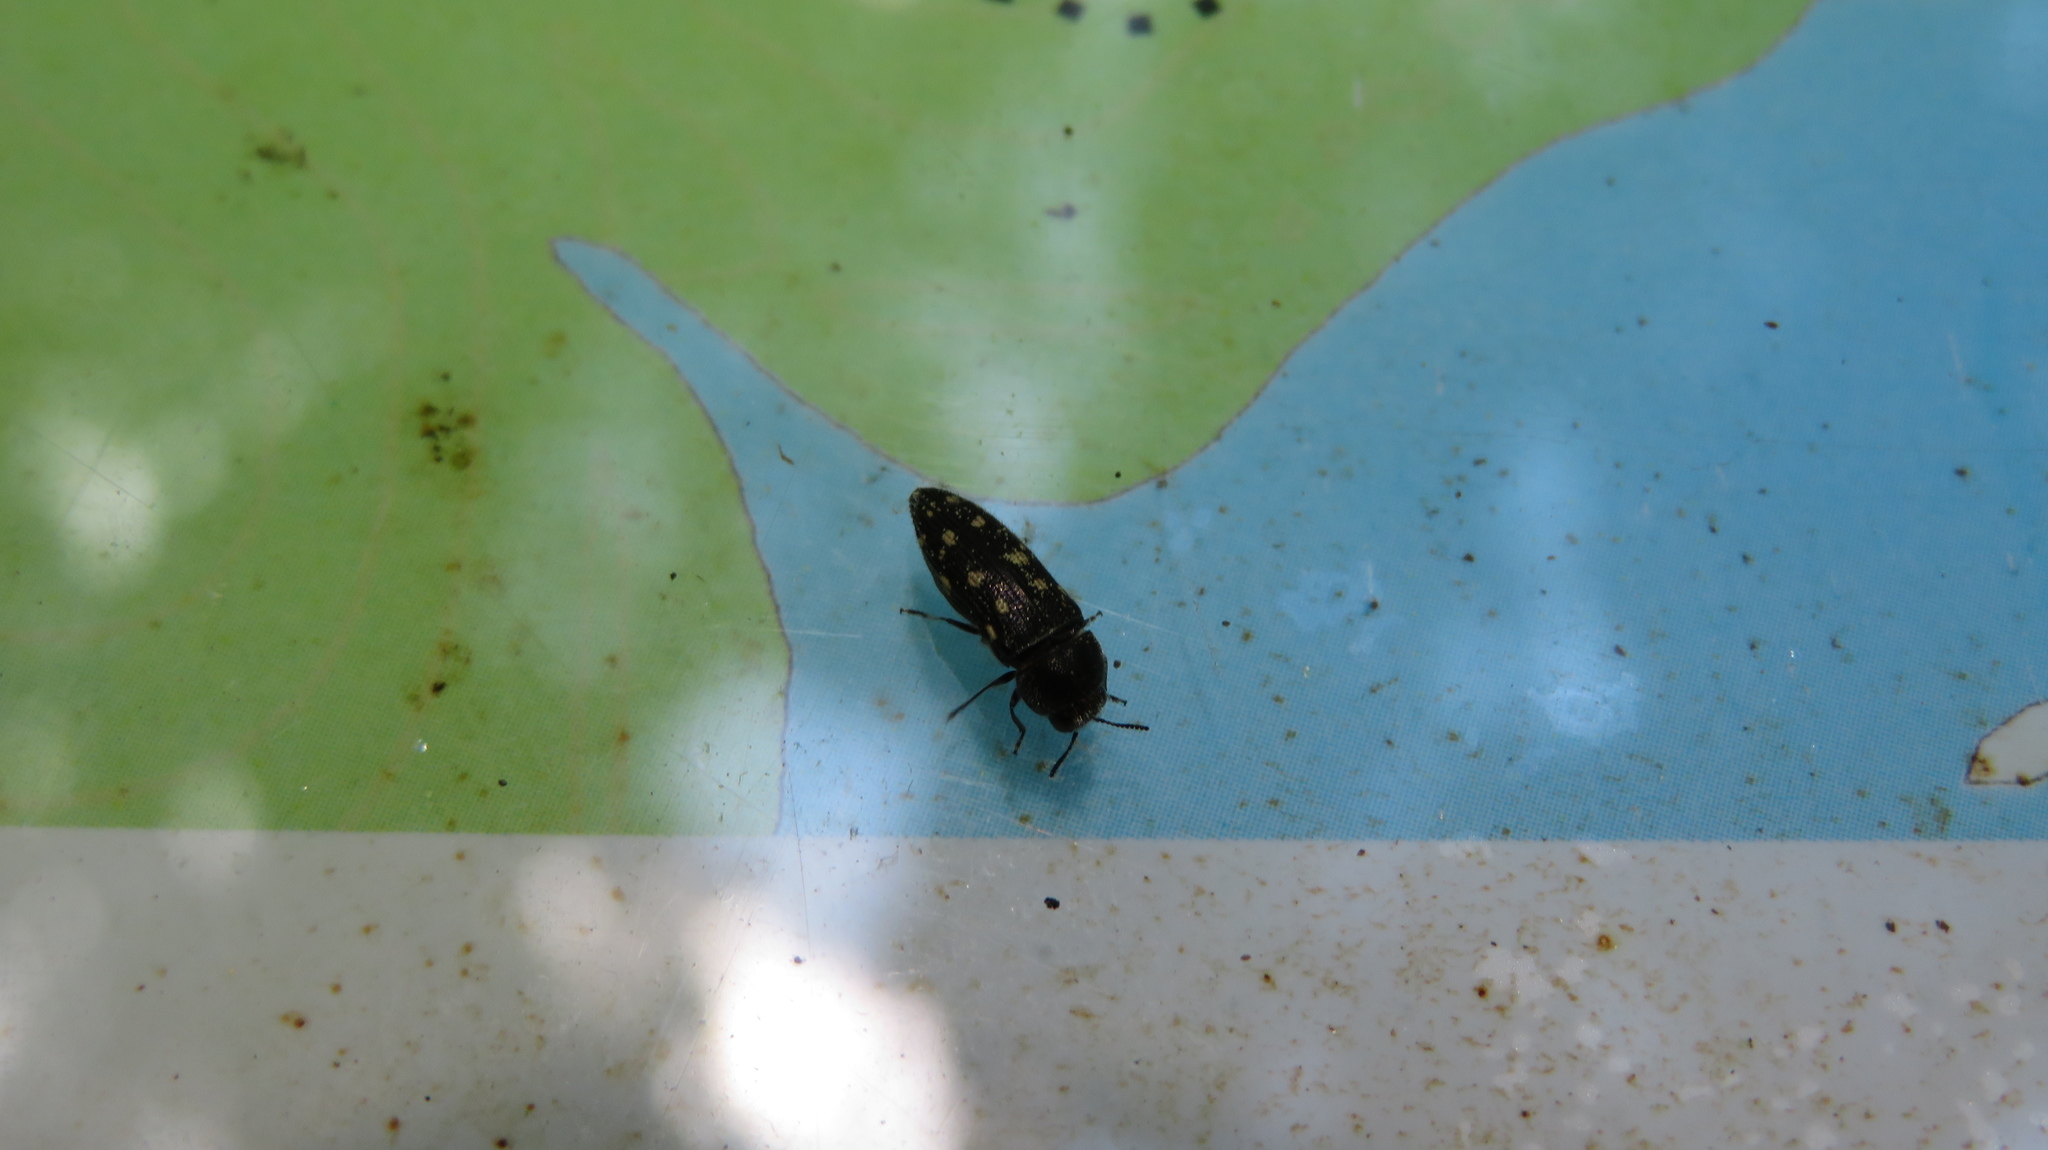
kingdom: Animalia
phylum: Arthropoda
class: Insecta
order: Coleoptera
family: Buprestidae
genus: Acmaeodera
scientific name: Acmaeodera tubulus
